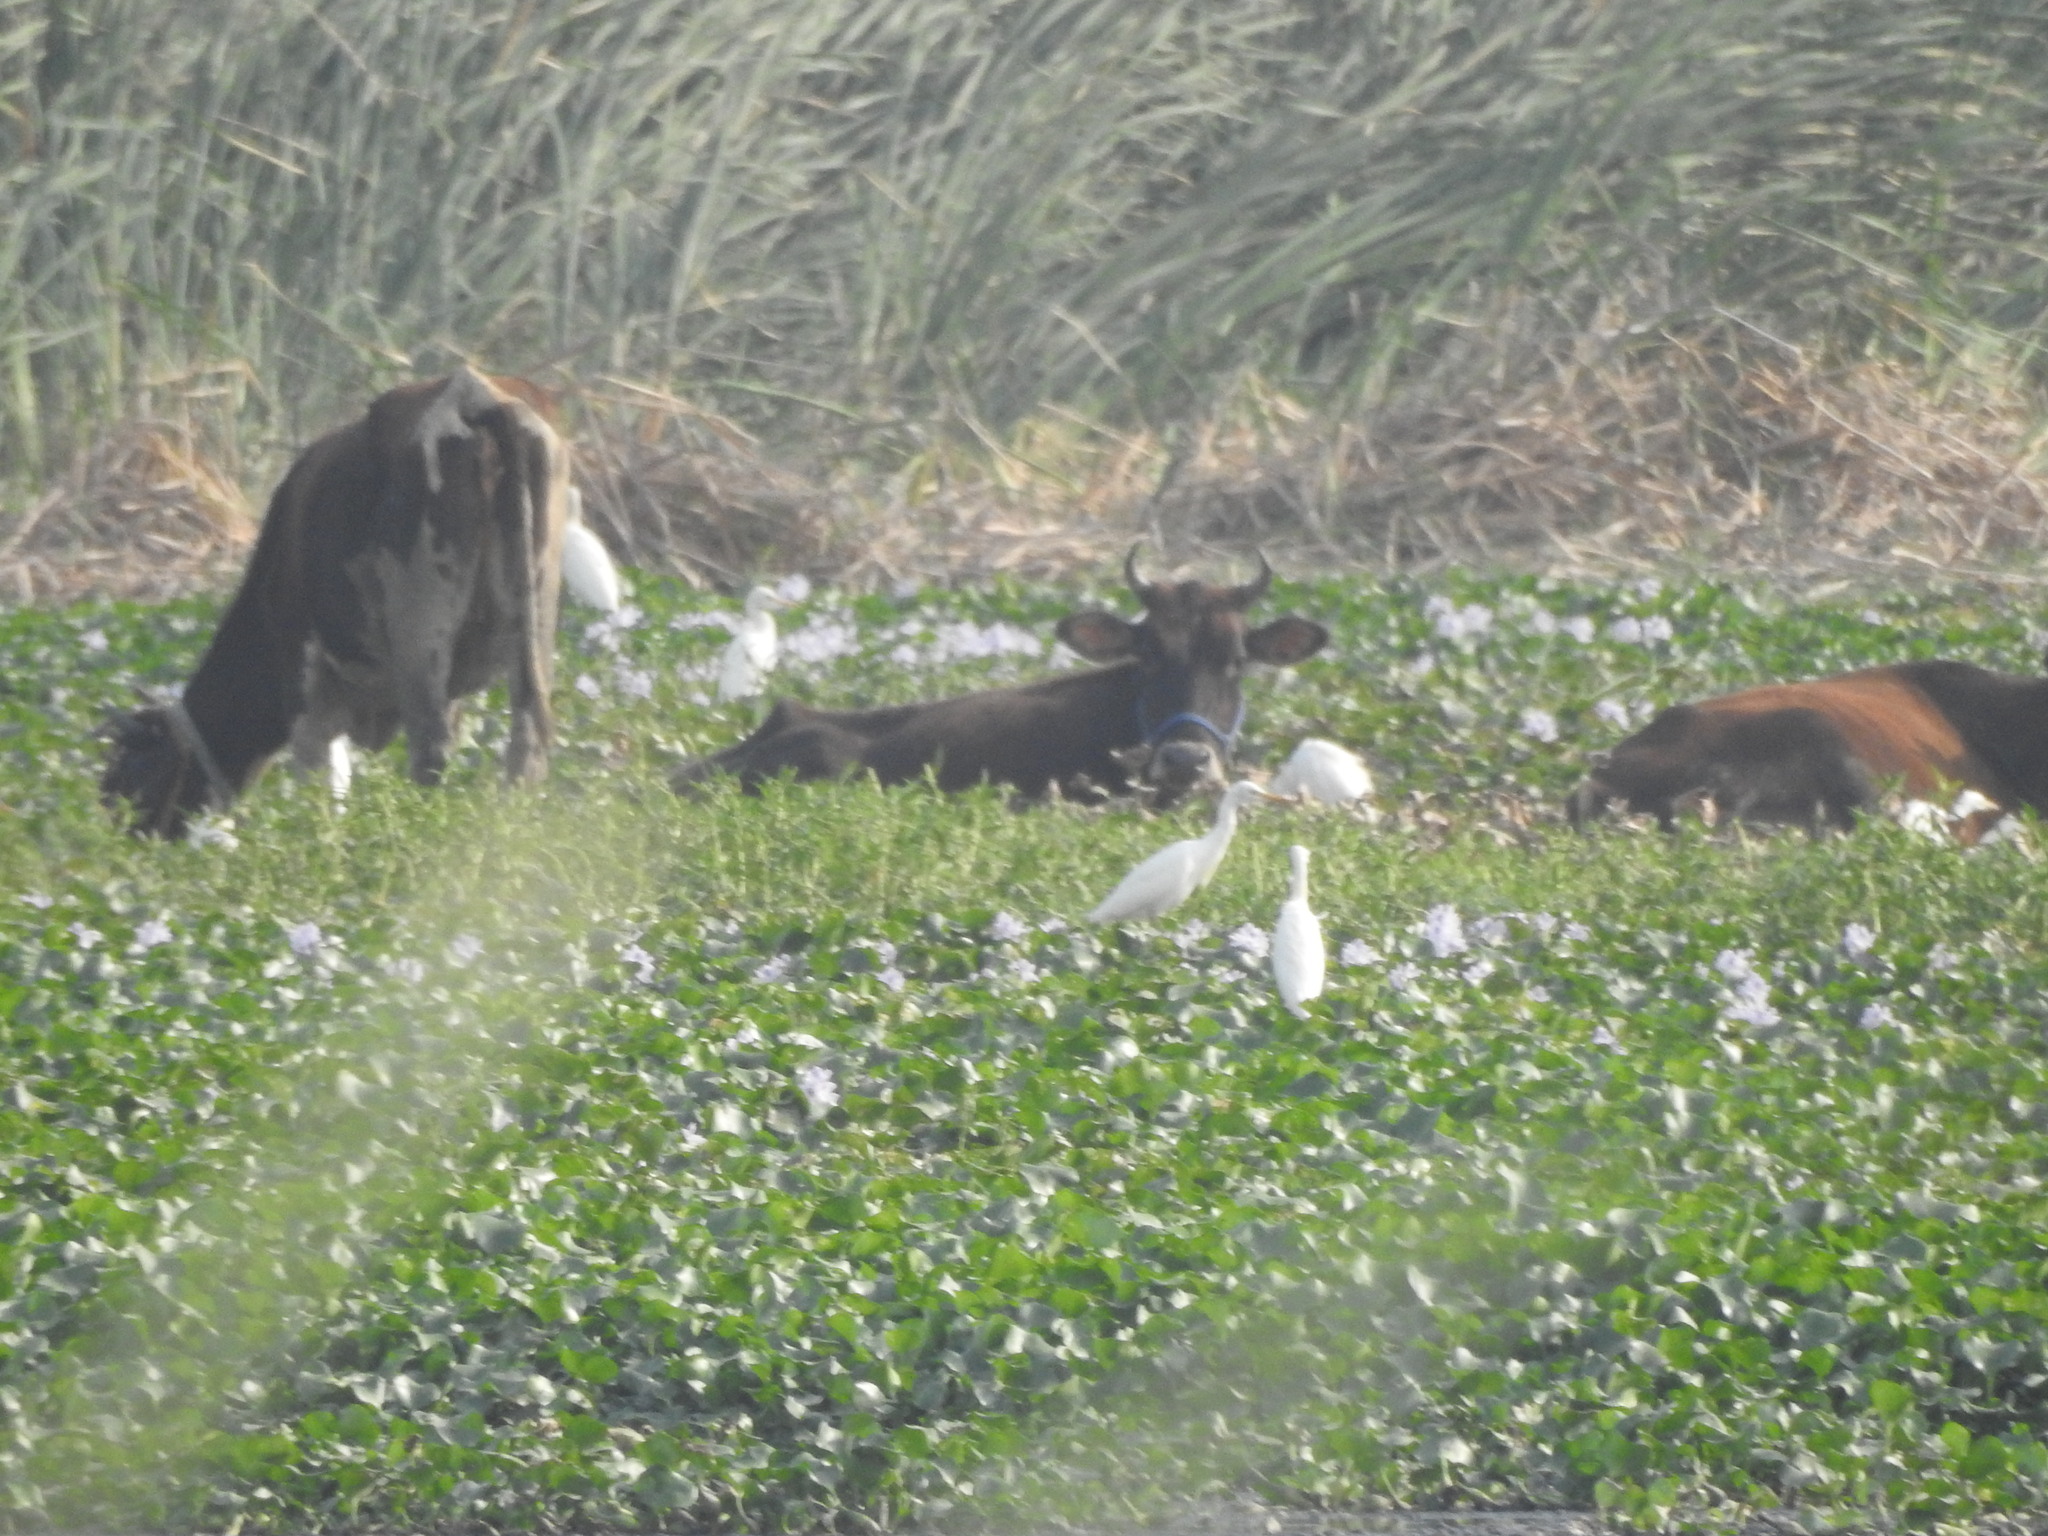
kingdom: Animalia
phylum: Chordata
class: Aves
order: Pelecaniformes
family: Ardeidae
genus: Bubulcus
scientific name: Bubulcus coromandus
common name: Eastern cattle egret
